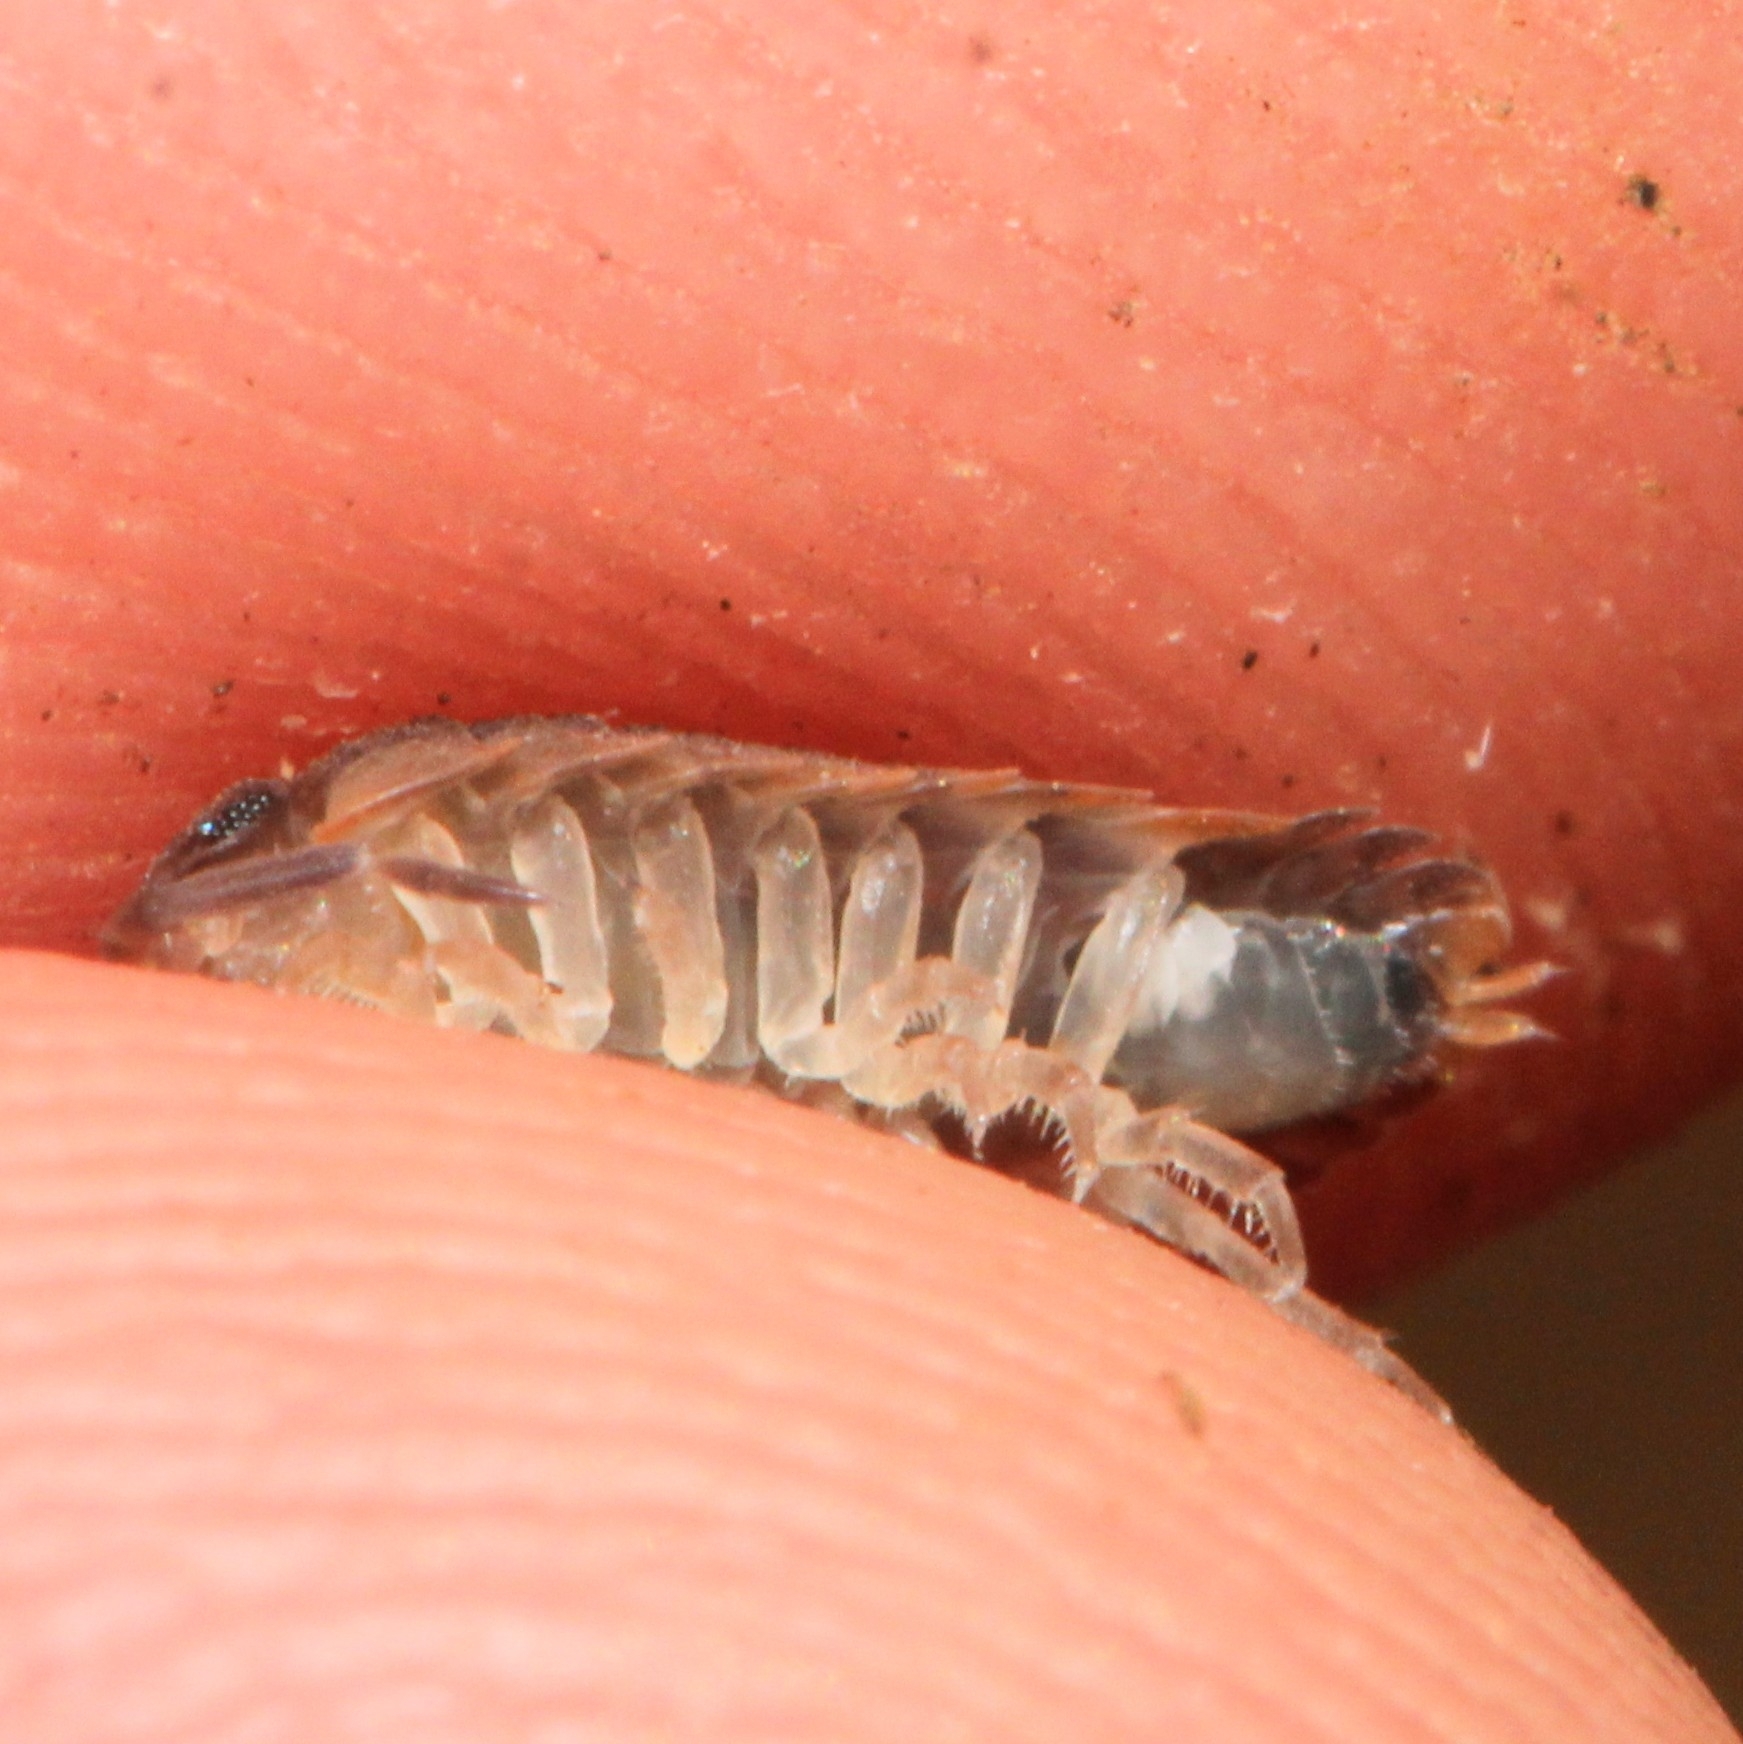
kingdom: Animalia
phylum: Arthropoda
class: Malacostraca
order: Isopoda
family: Porcellionidae
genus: Porcellio
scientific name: Porcellio scaber
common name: Common rough woodlouse
